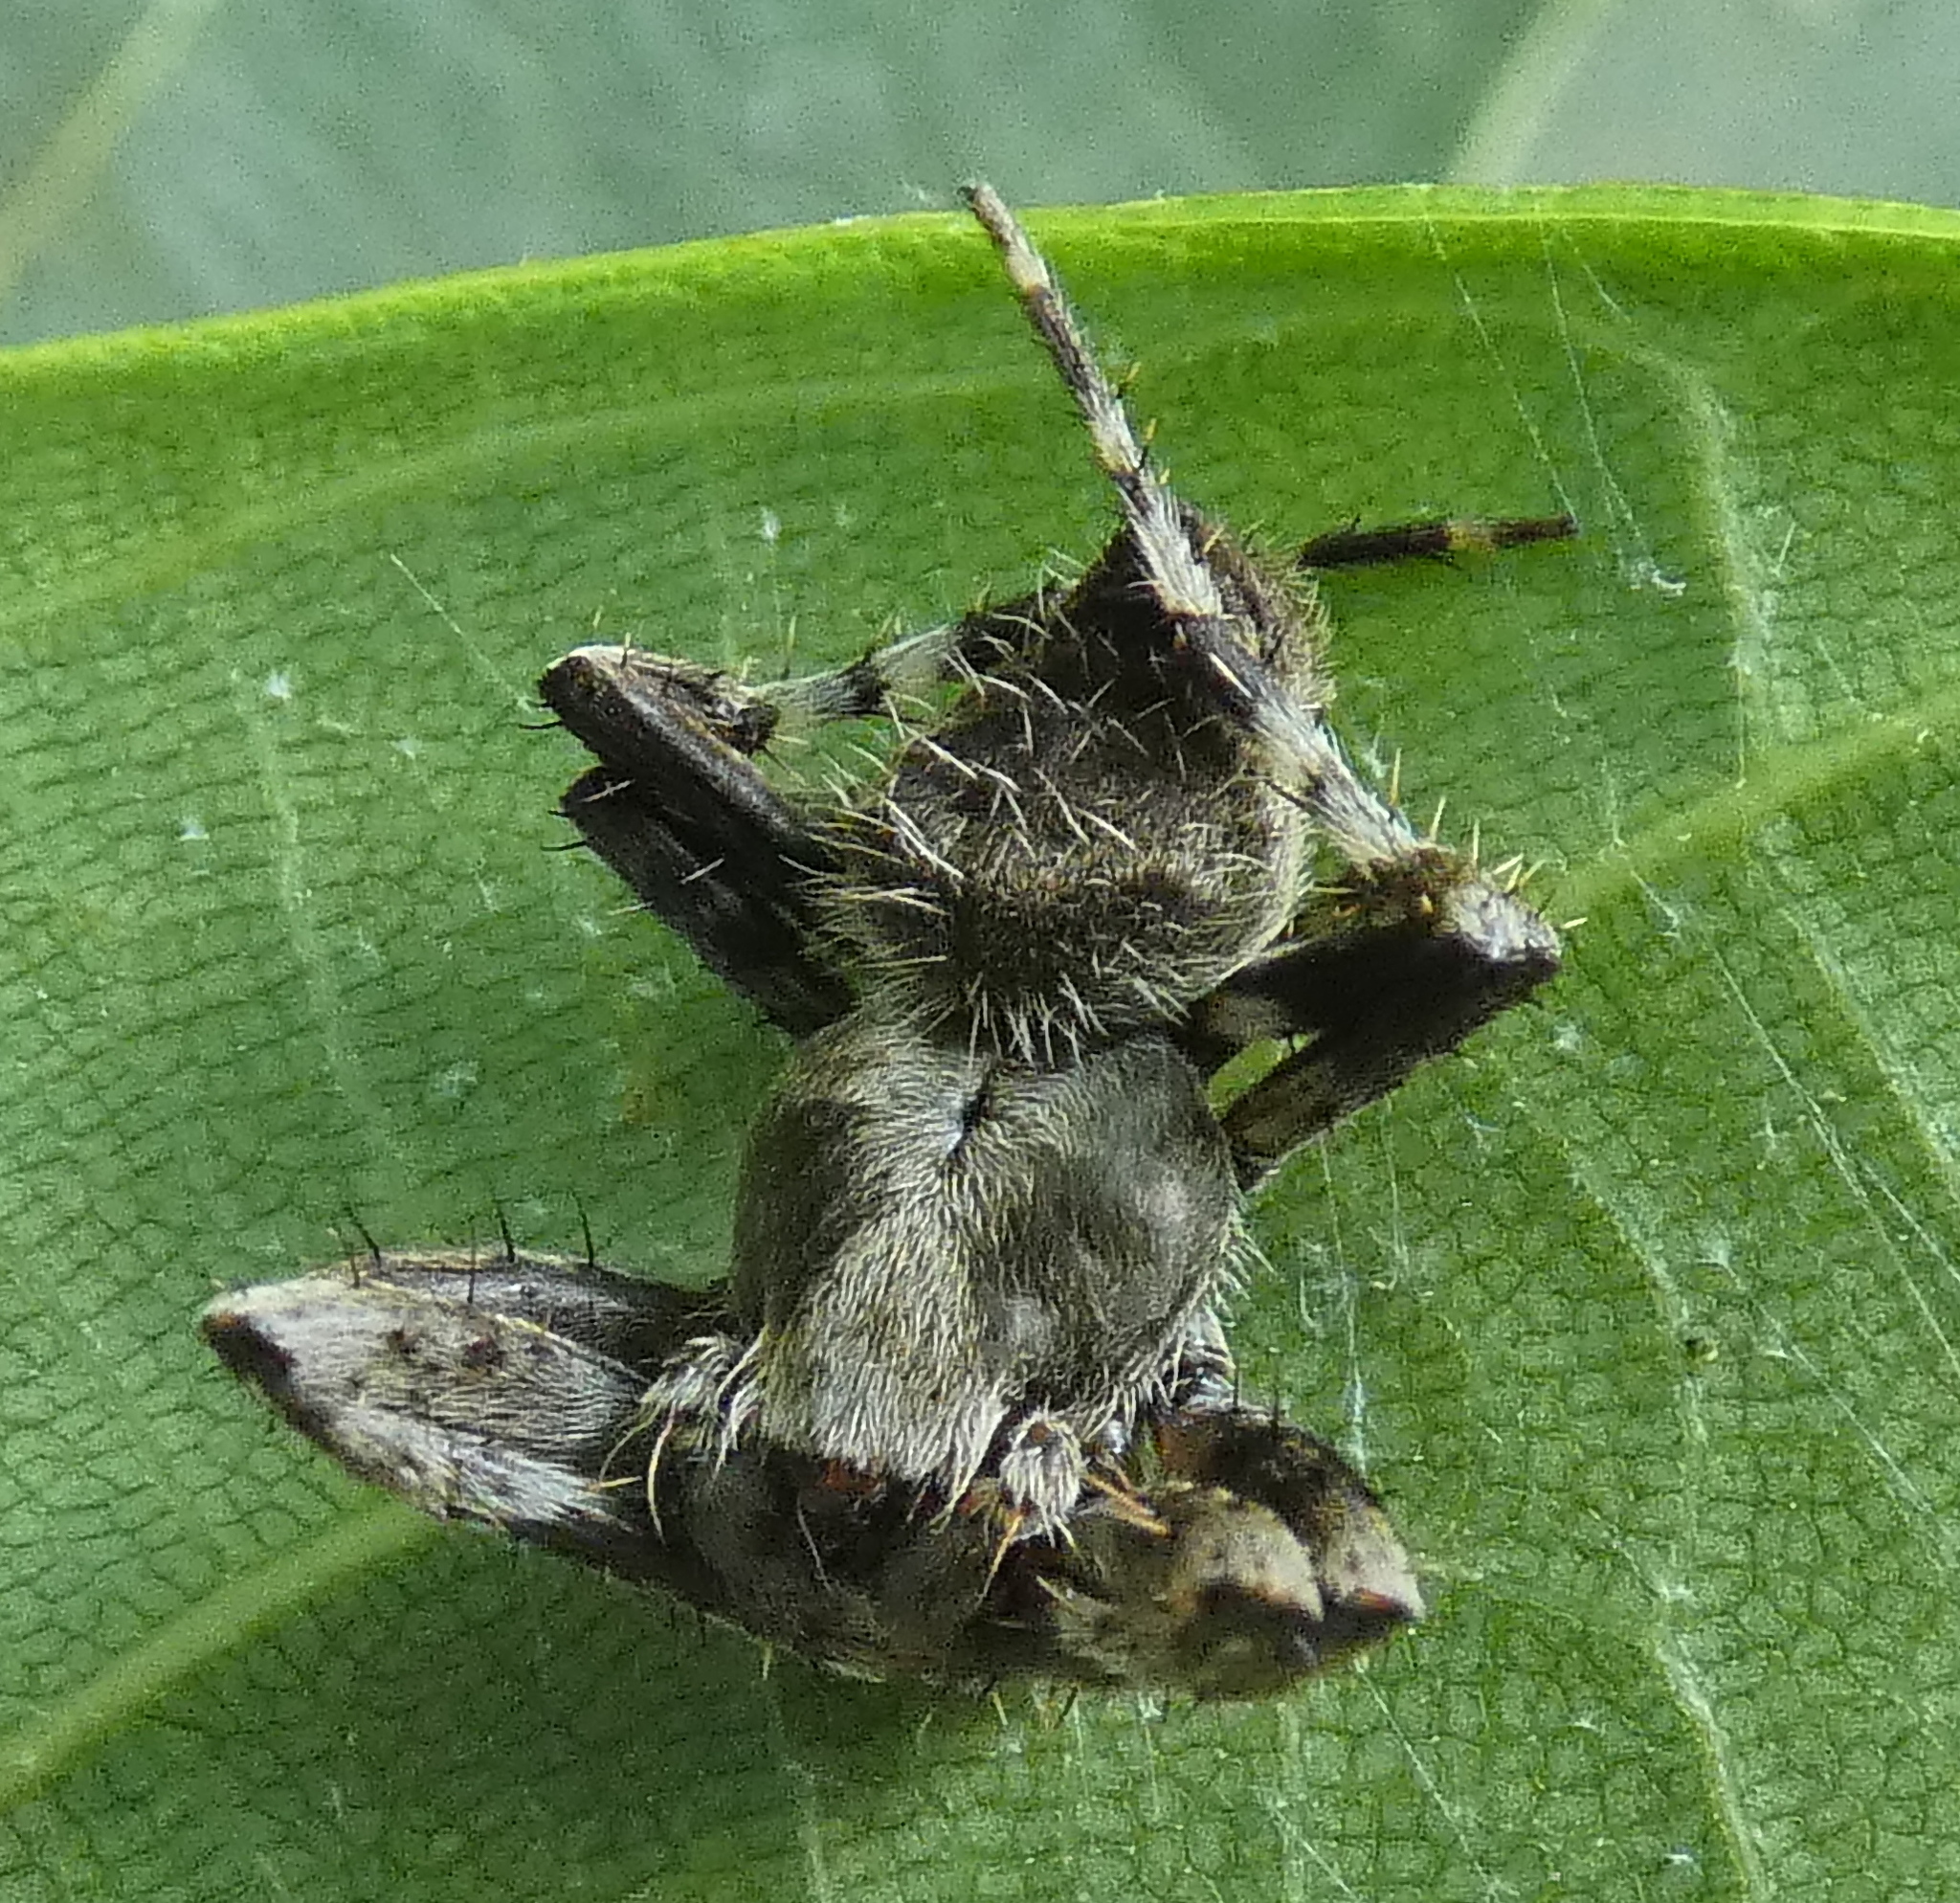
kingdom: Animalia
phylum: Arthropoda
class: Arachnida
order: Araneae
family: Araneidae
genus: Eriophora
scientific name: Eriophora edax
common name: Orb weavers
